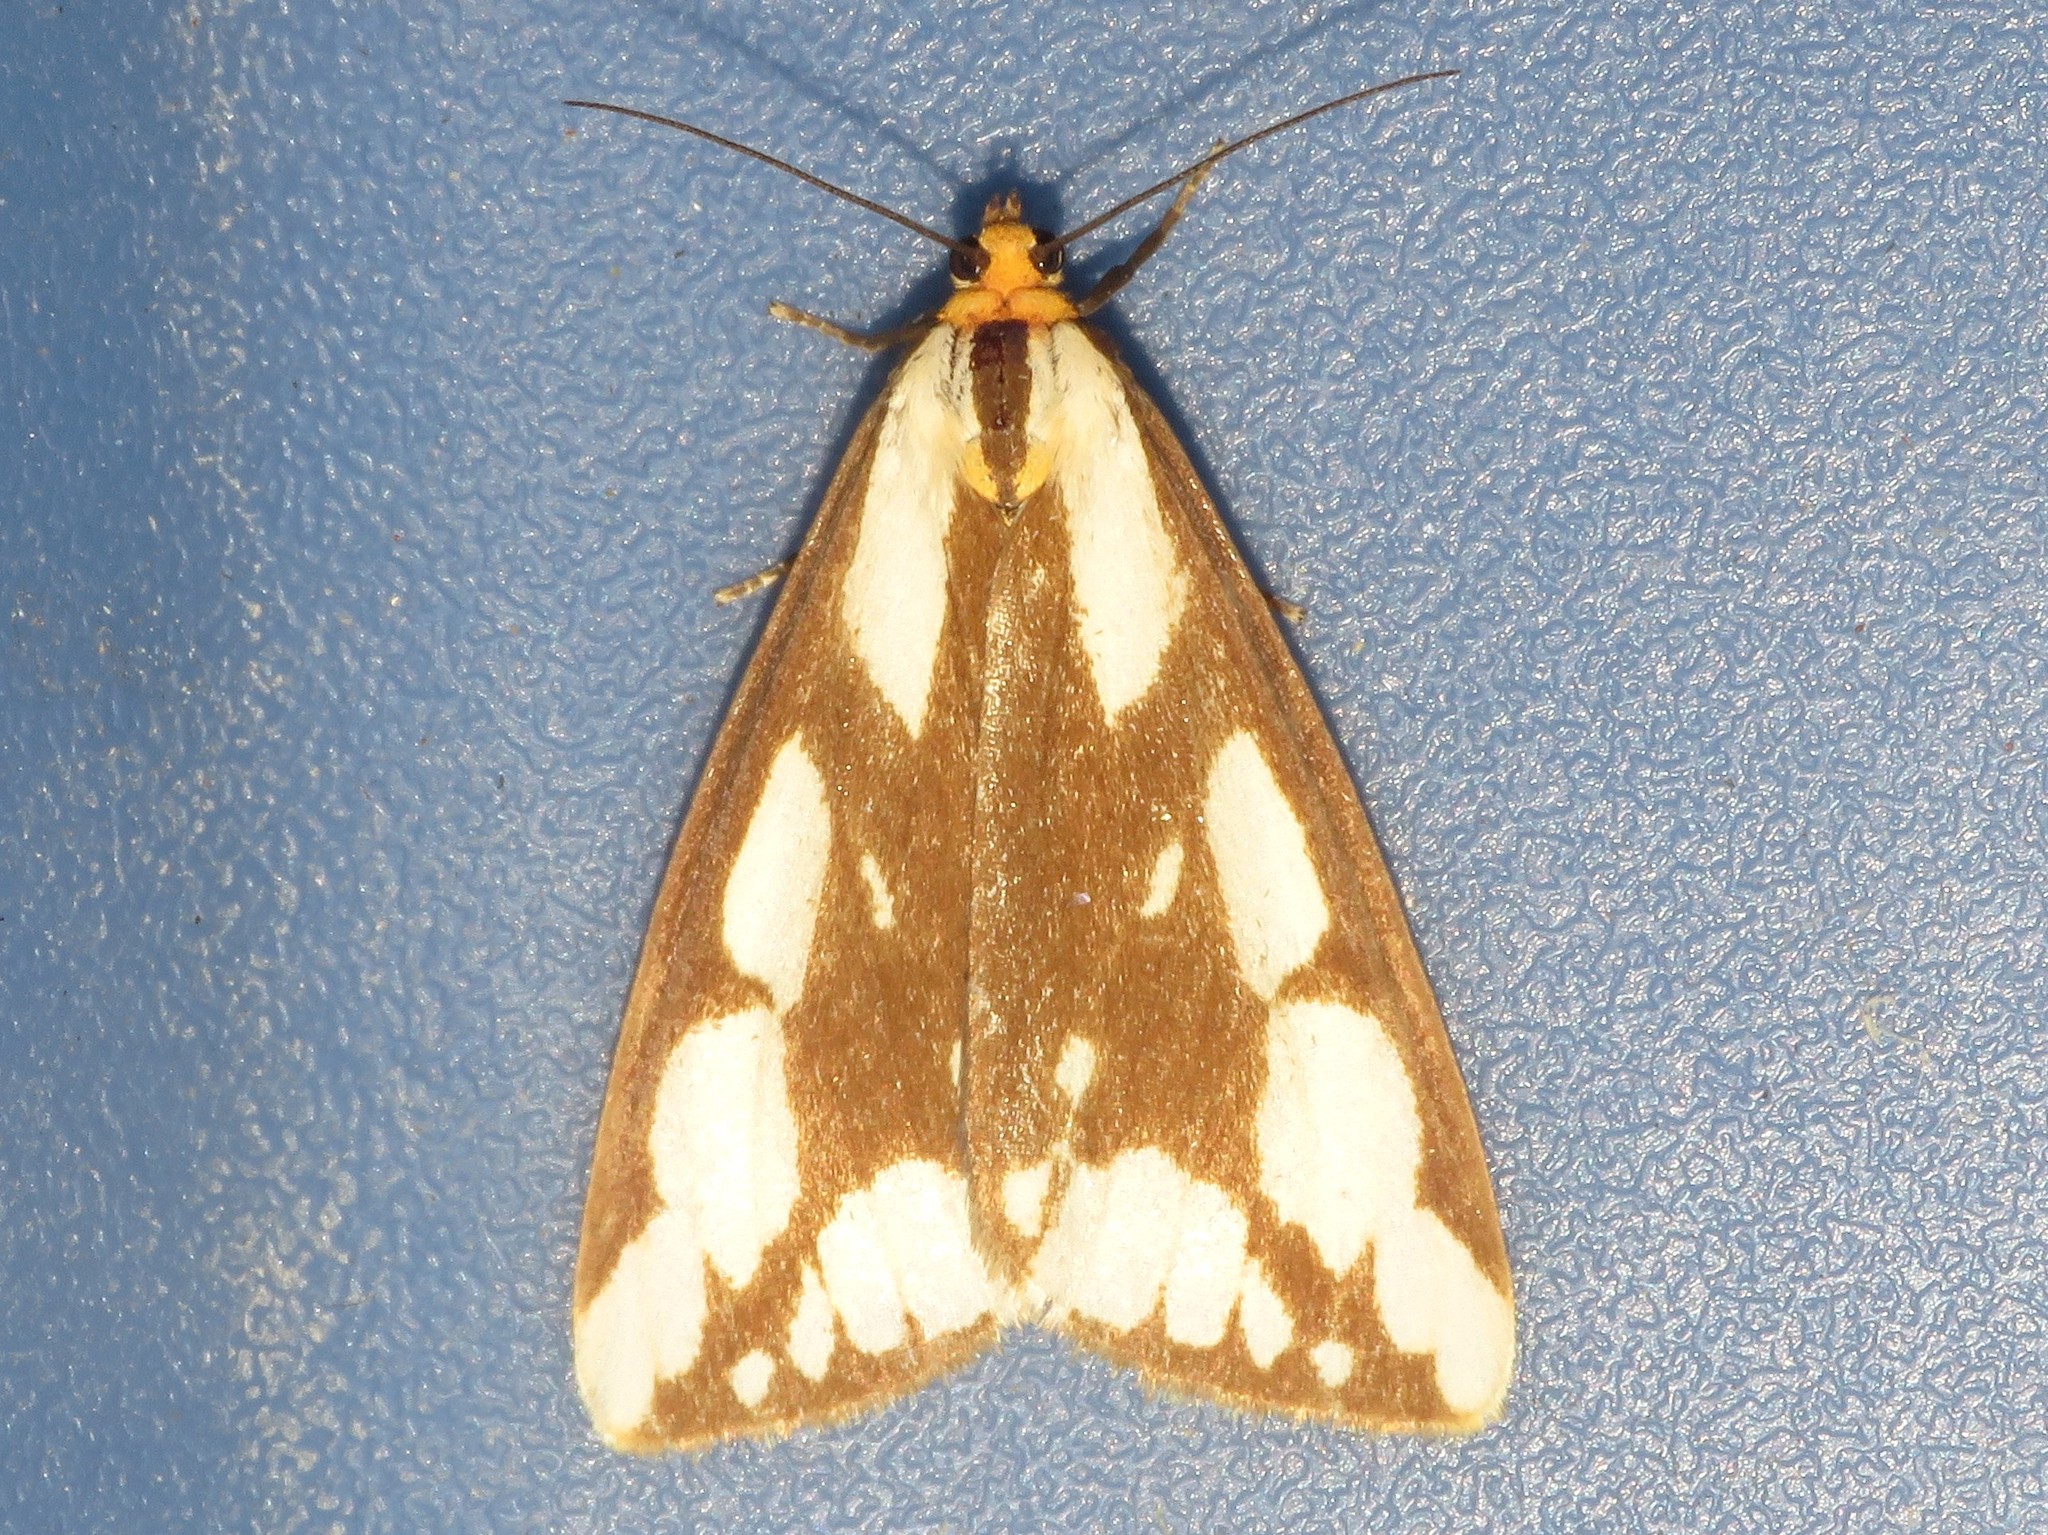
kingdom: Animalia
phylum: Arthropoda
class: Insecta
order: Lepidoptera
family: Erebidae
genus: Haploa
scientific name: Haploa confusa
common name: Confused haploa moth
